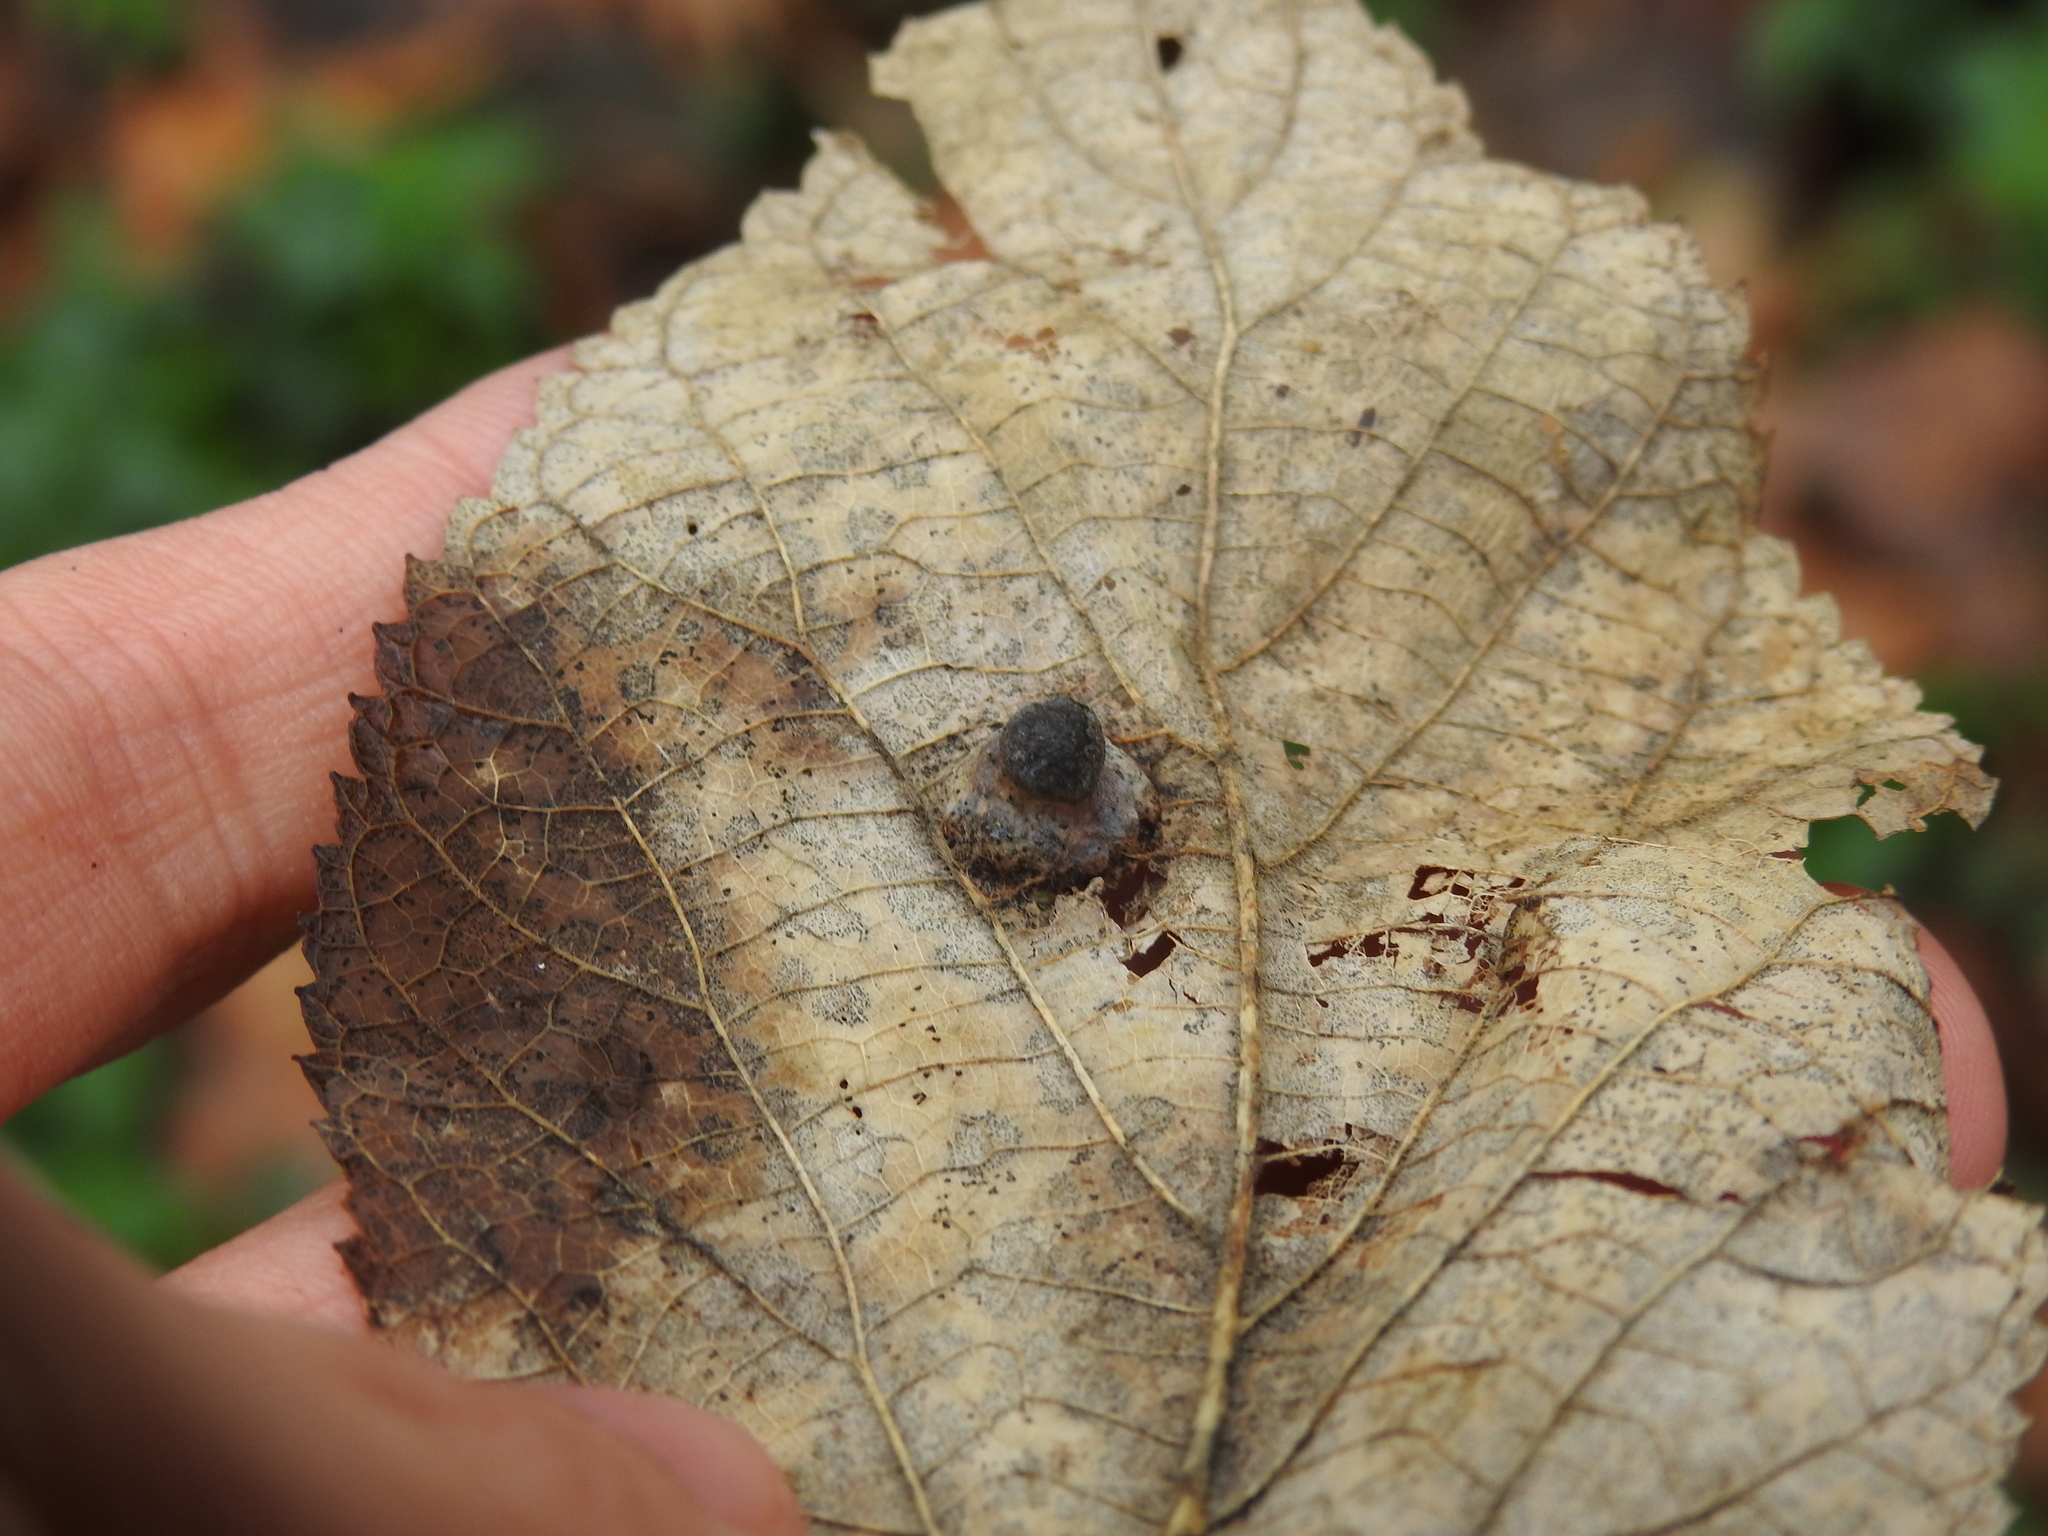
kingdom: Animalia
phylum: Arthropoda
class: Insecta
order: Hemiptera
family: Aphalaridae
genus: Pachypsylla
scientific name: Pachypsylla celtidismamma
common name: Hackberry nipplegall psyllid
